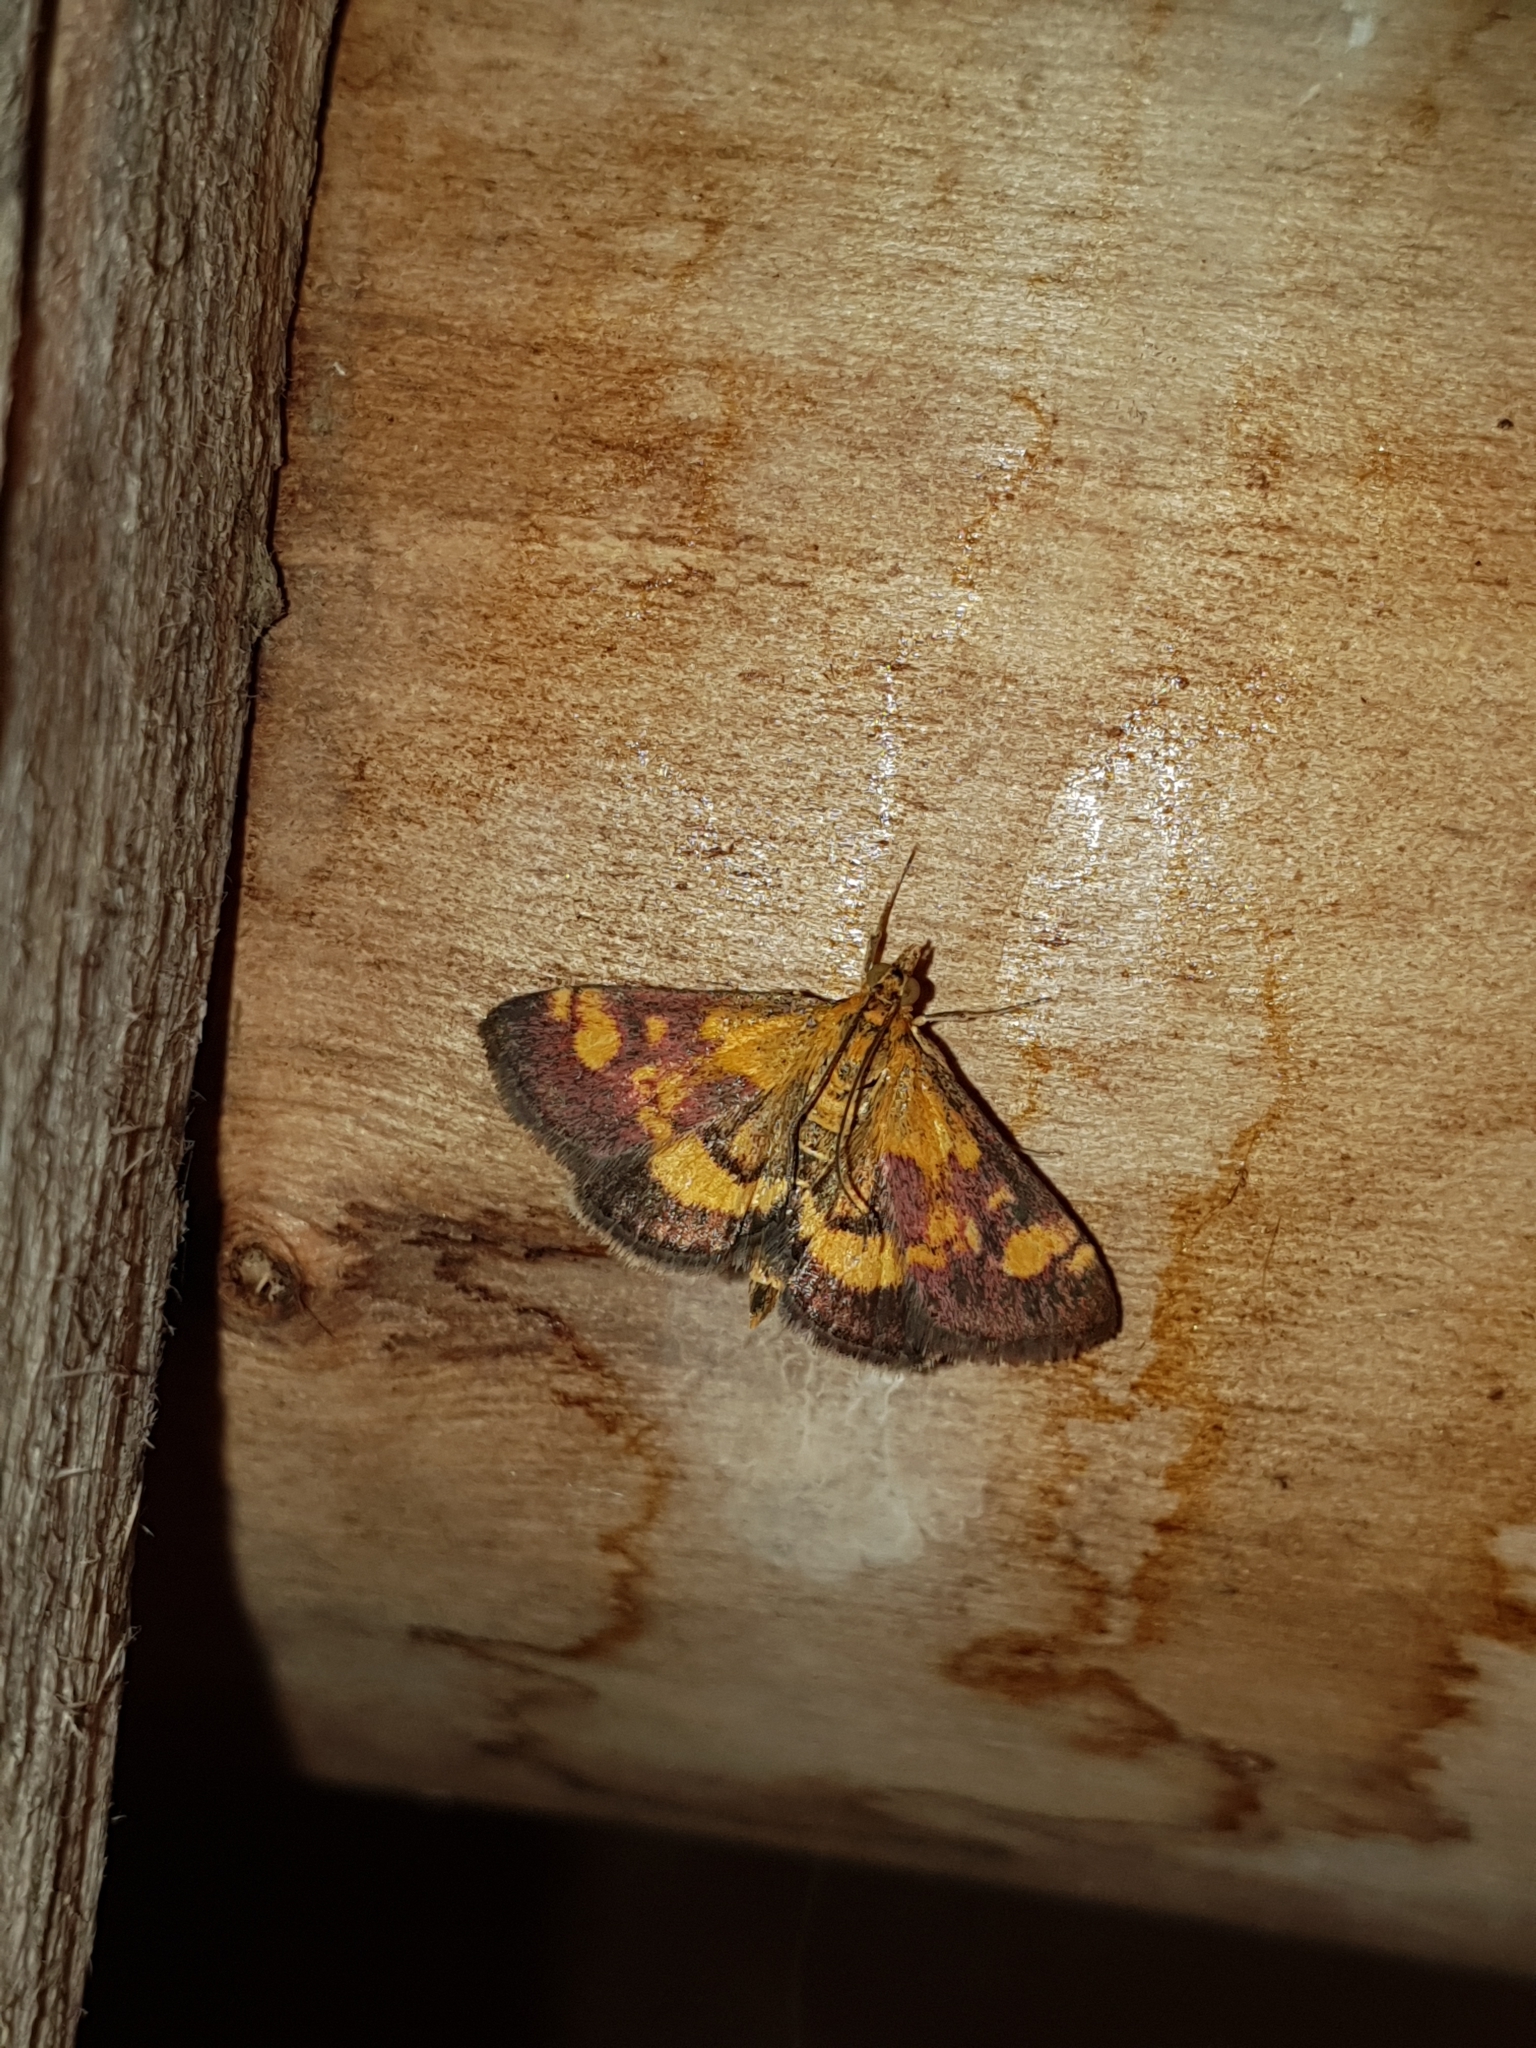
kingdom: Animalia
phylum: Arthropoda
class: Insecta
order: Lepidoptera
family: Crambidae
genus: Pyrausta
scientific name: Pyrausta aurata
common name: Small purple & gold
